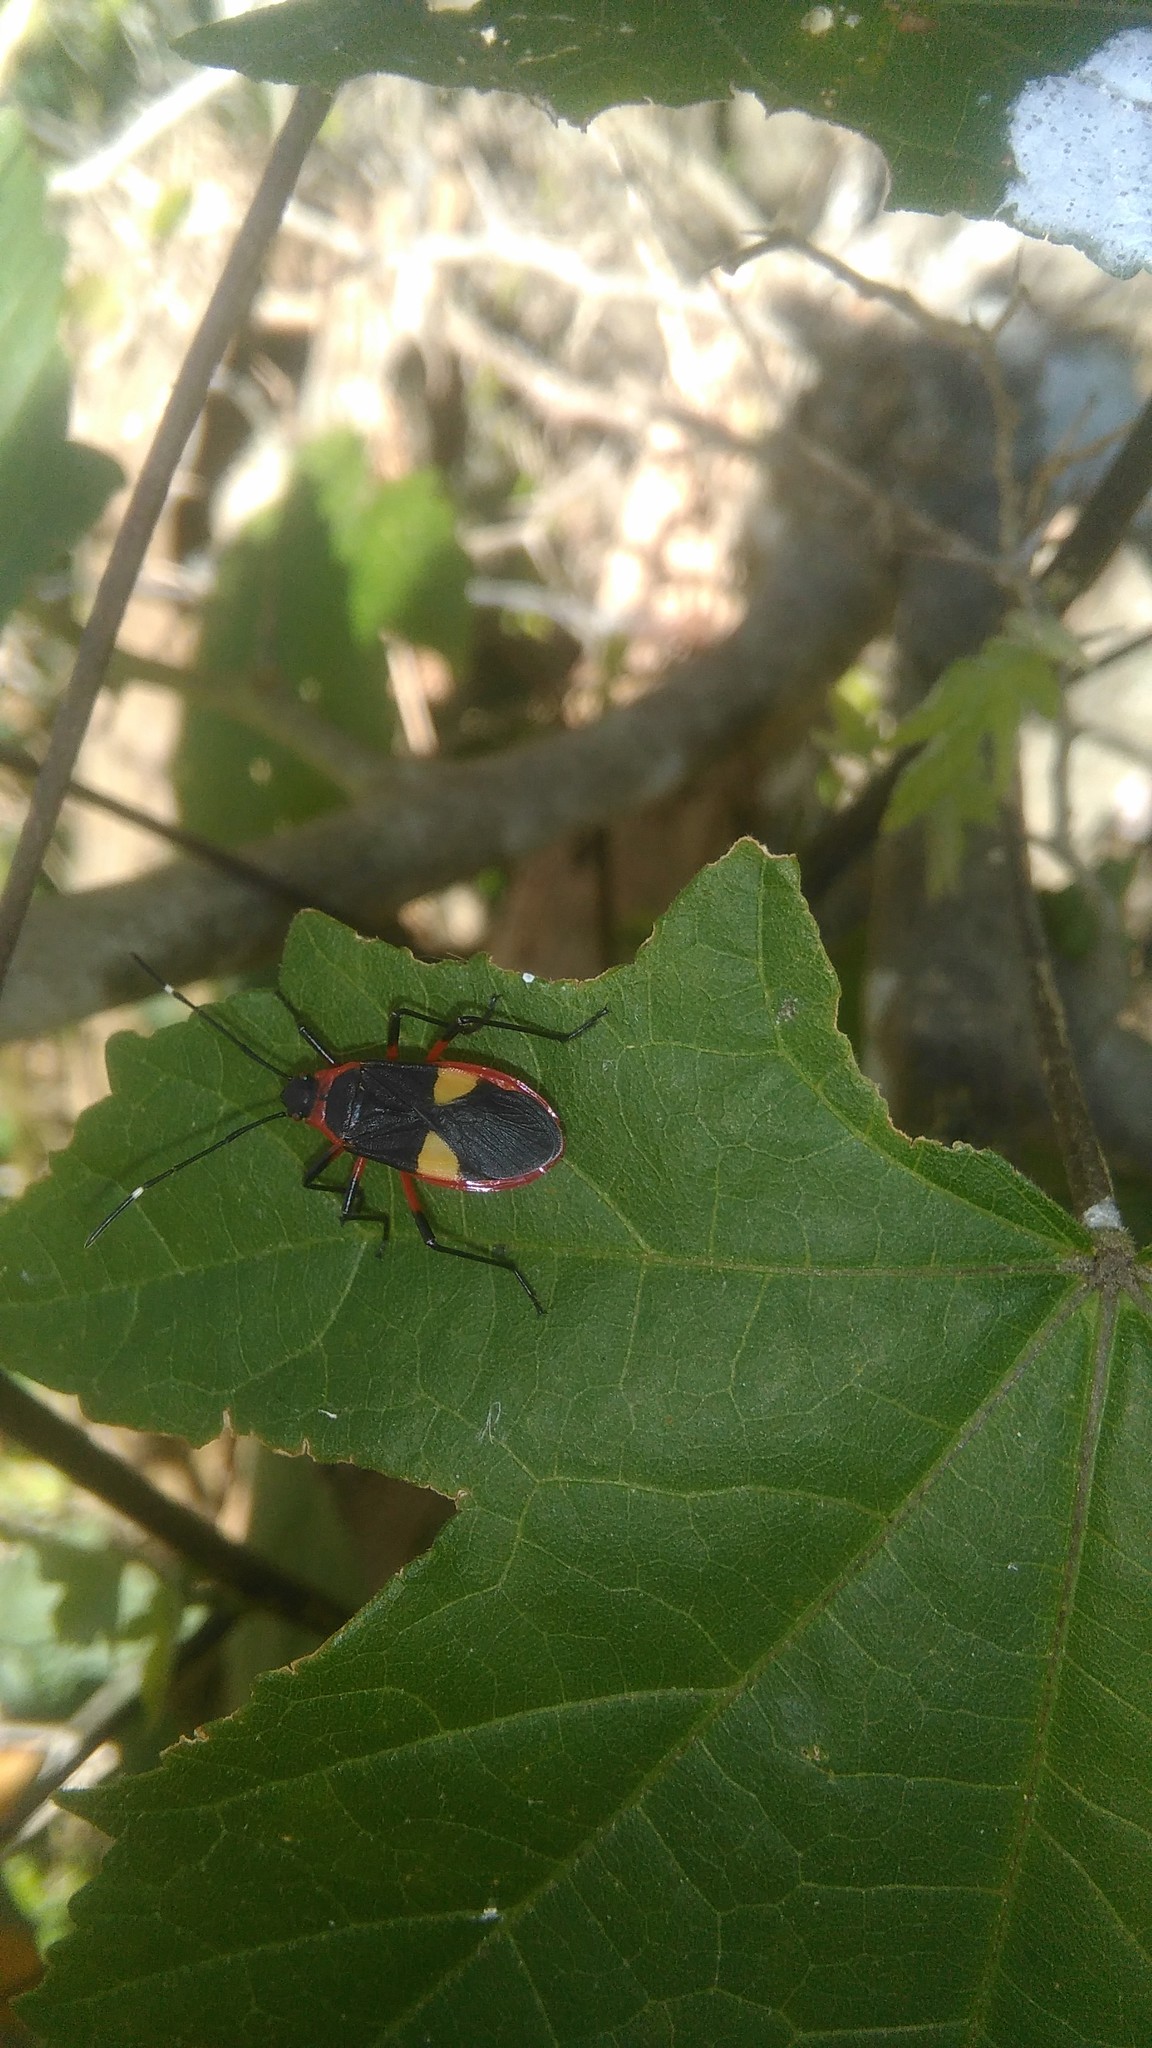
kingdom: Animalia
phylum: Arthropoda
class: Insecta
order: Hemiptera
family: Pyrrhocoridae
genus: Dysdercus
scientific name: Dysdercus albofasciatus
